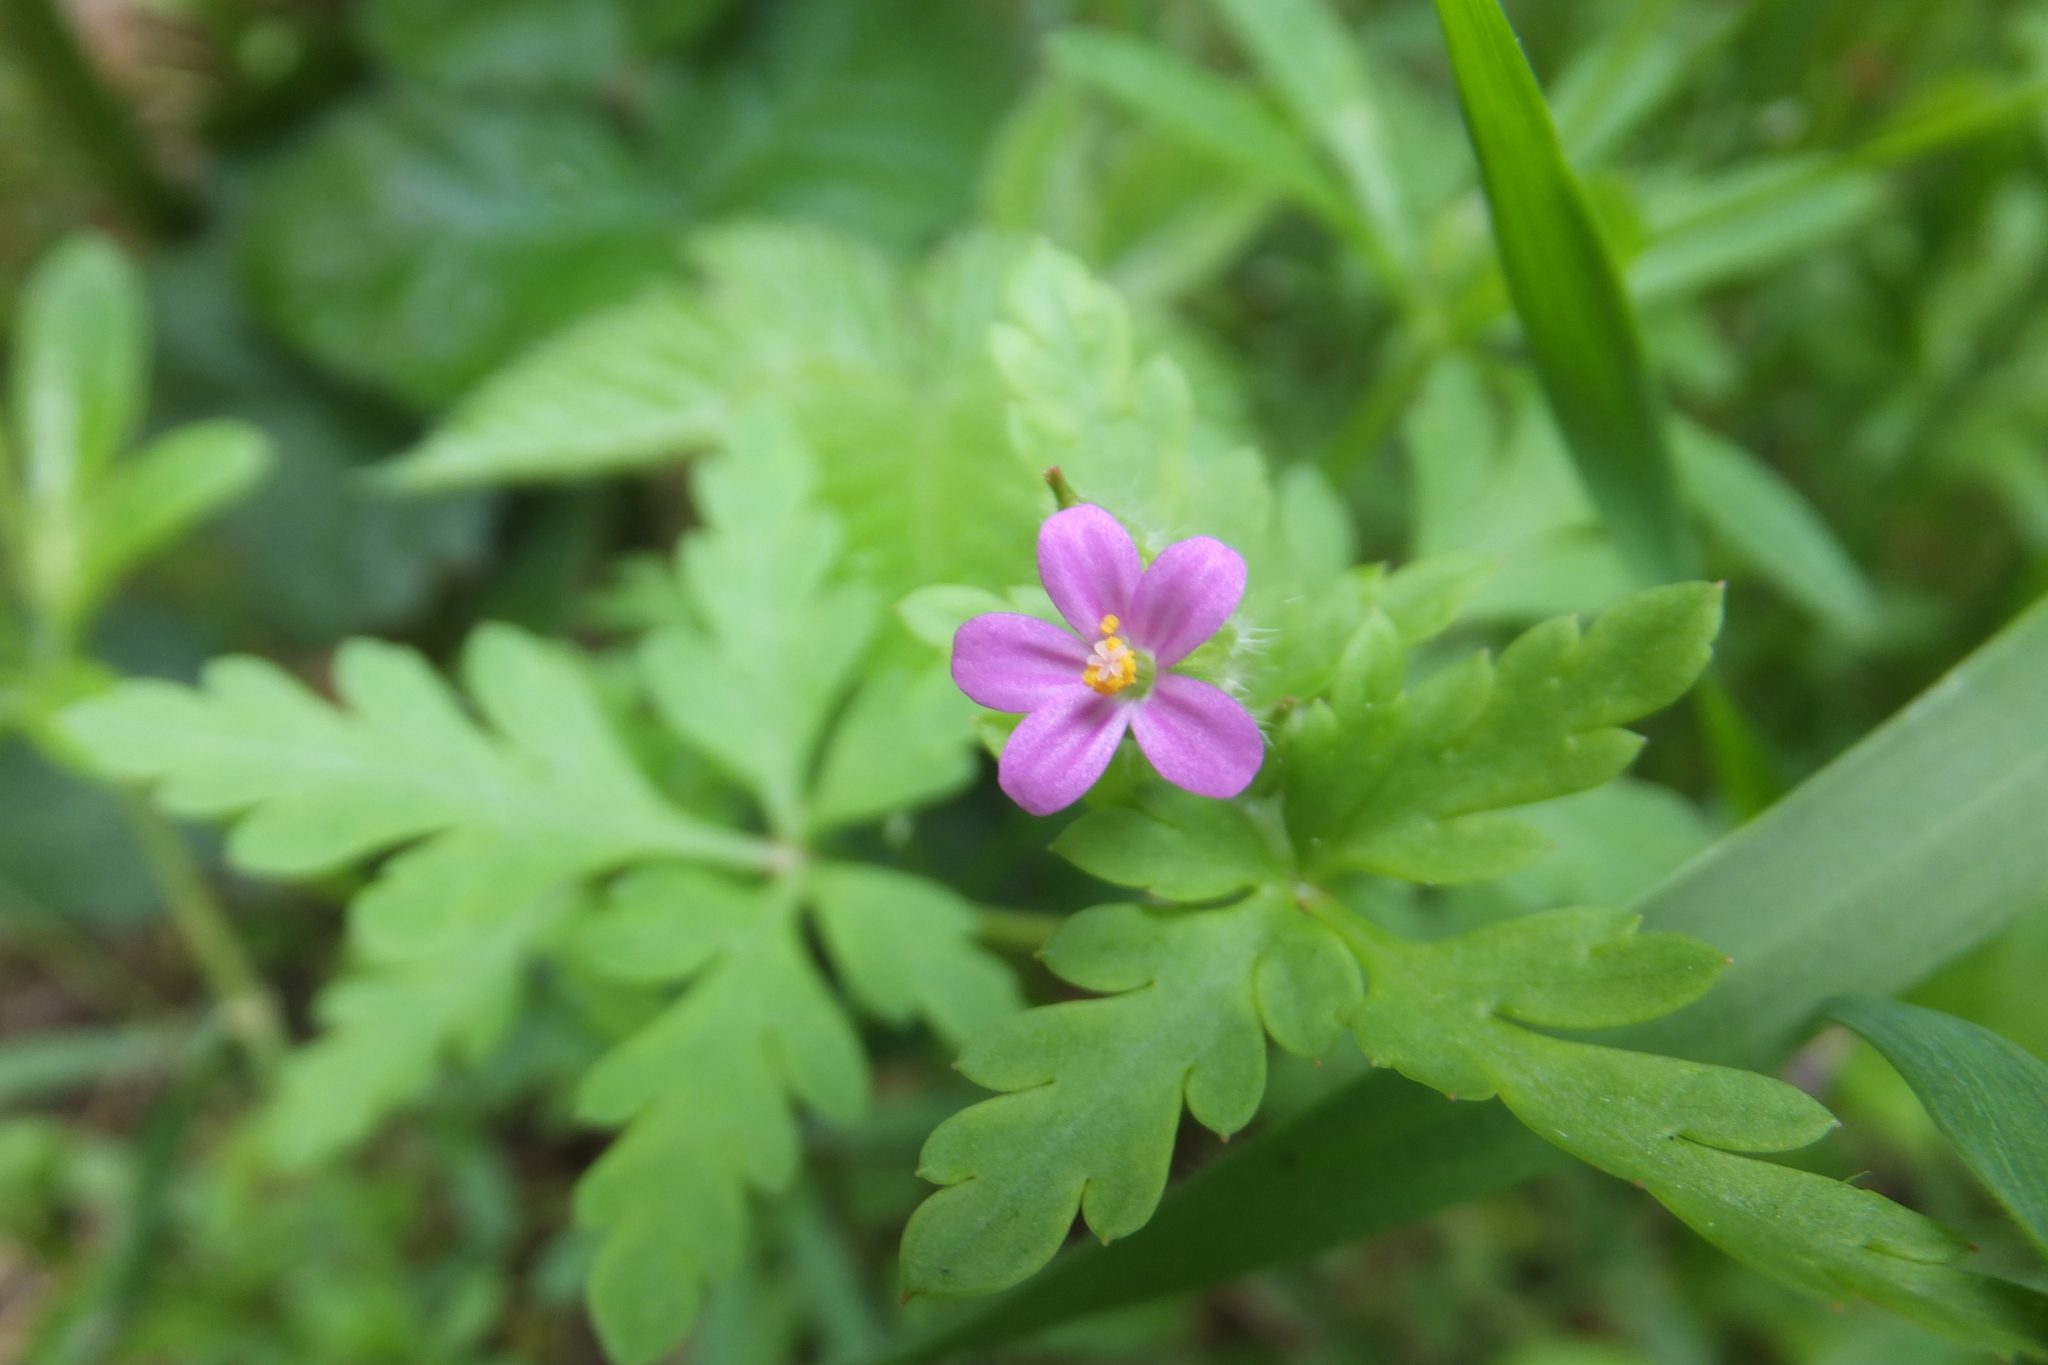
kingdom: Plantae
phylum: Tracheophyta
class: Magnoliopsida
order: Geraniales
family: Geraniaceae
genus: Geranium
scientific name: Geranium purpureum
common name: Little-robin
